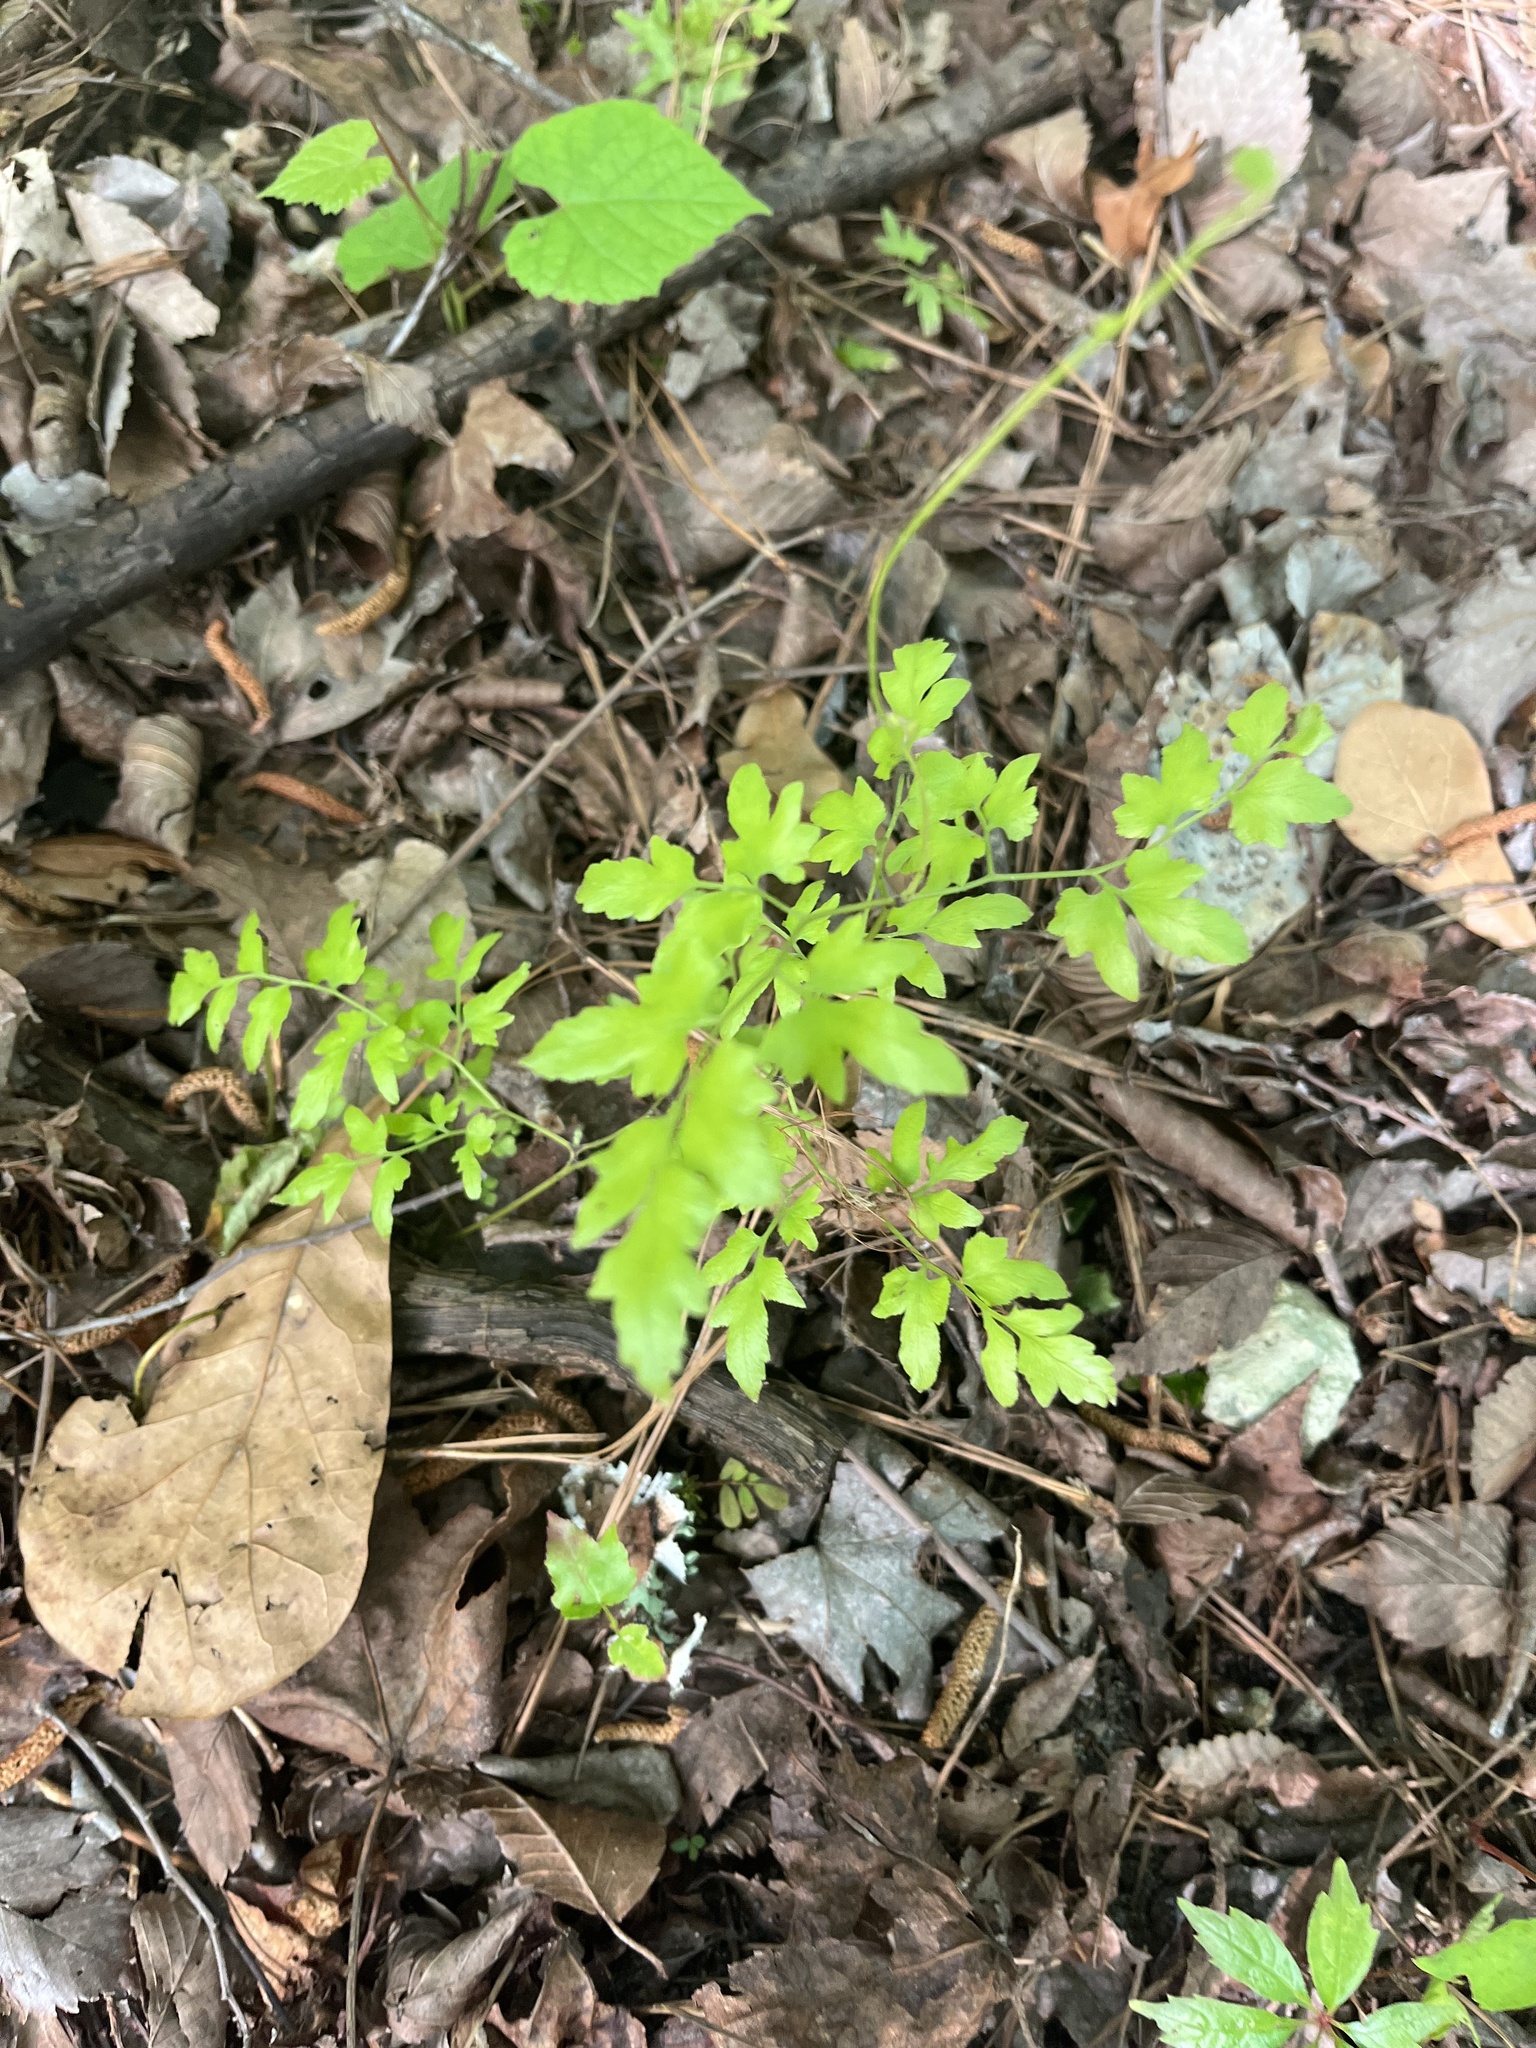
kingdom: Plantae
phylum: Tracheophyta
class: Polypodiopsida
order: Schizaeales
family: Lygodiaceae
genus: Lygodium
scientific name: Lygodium japonicum
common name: Japanese climbing fern
